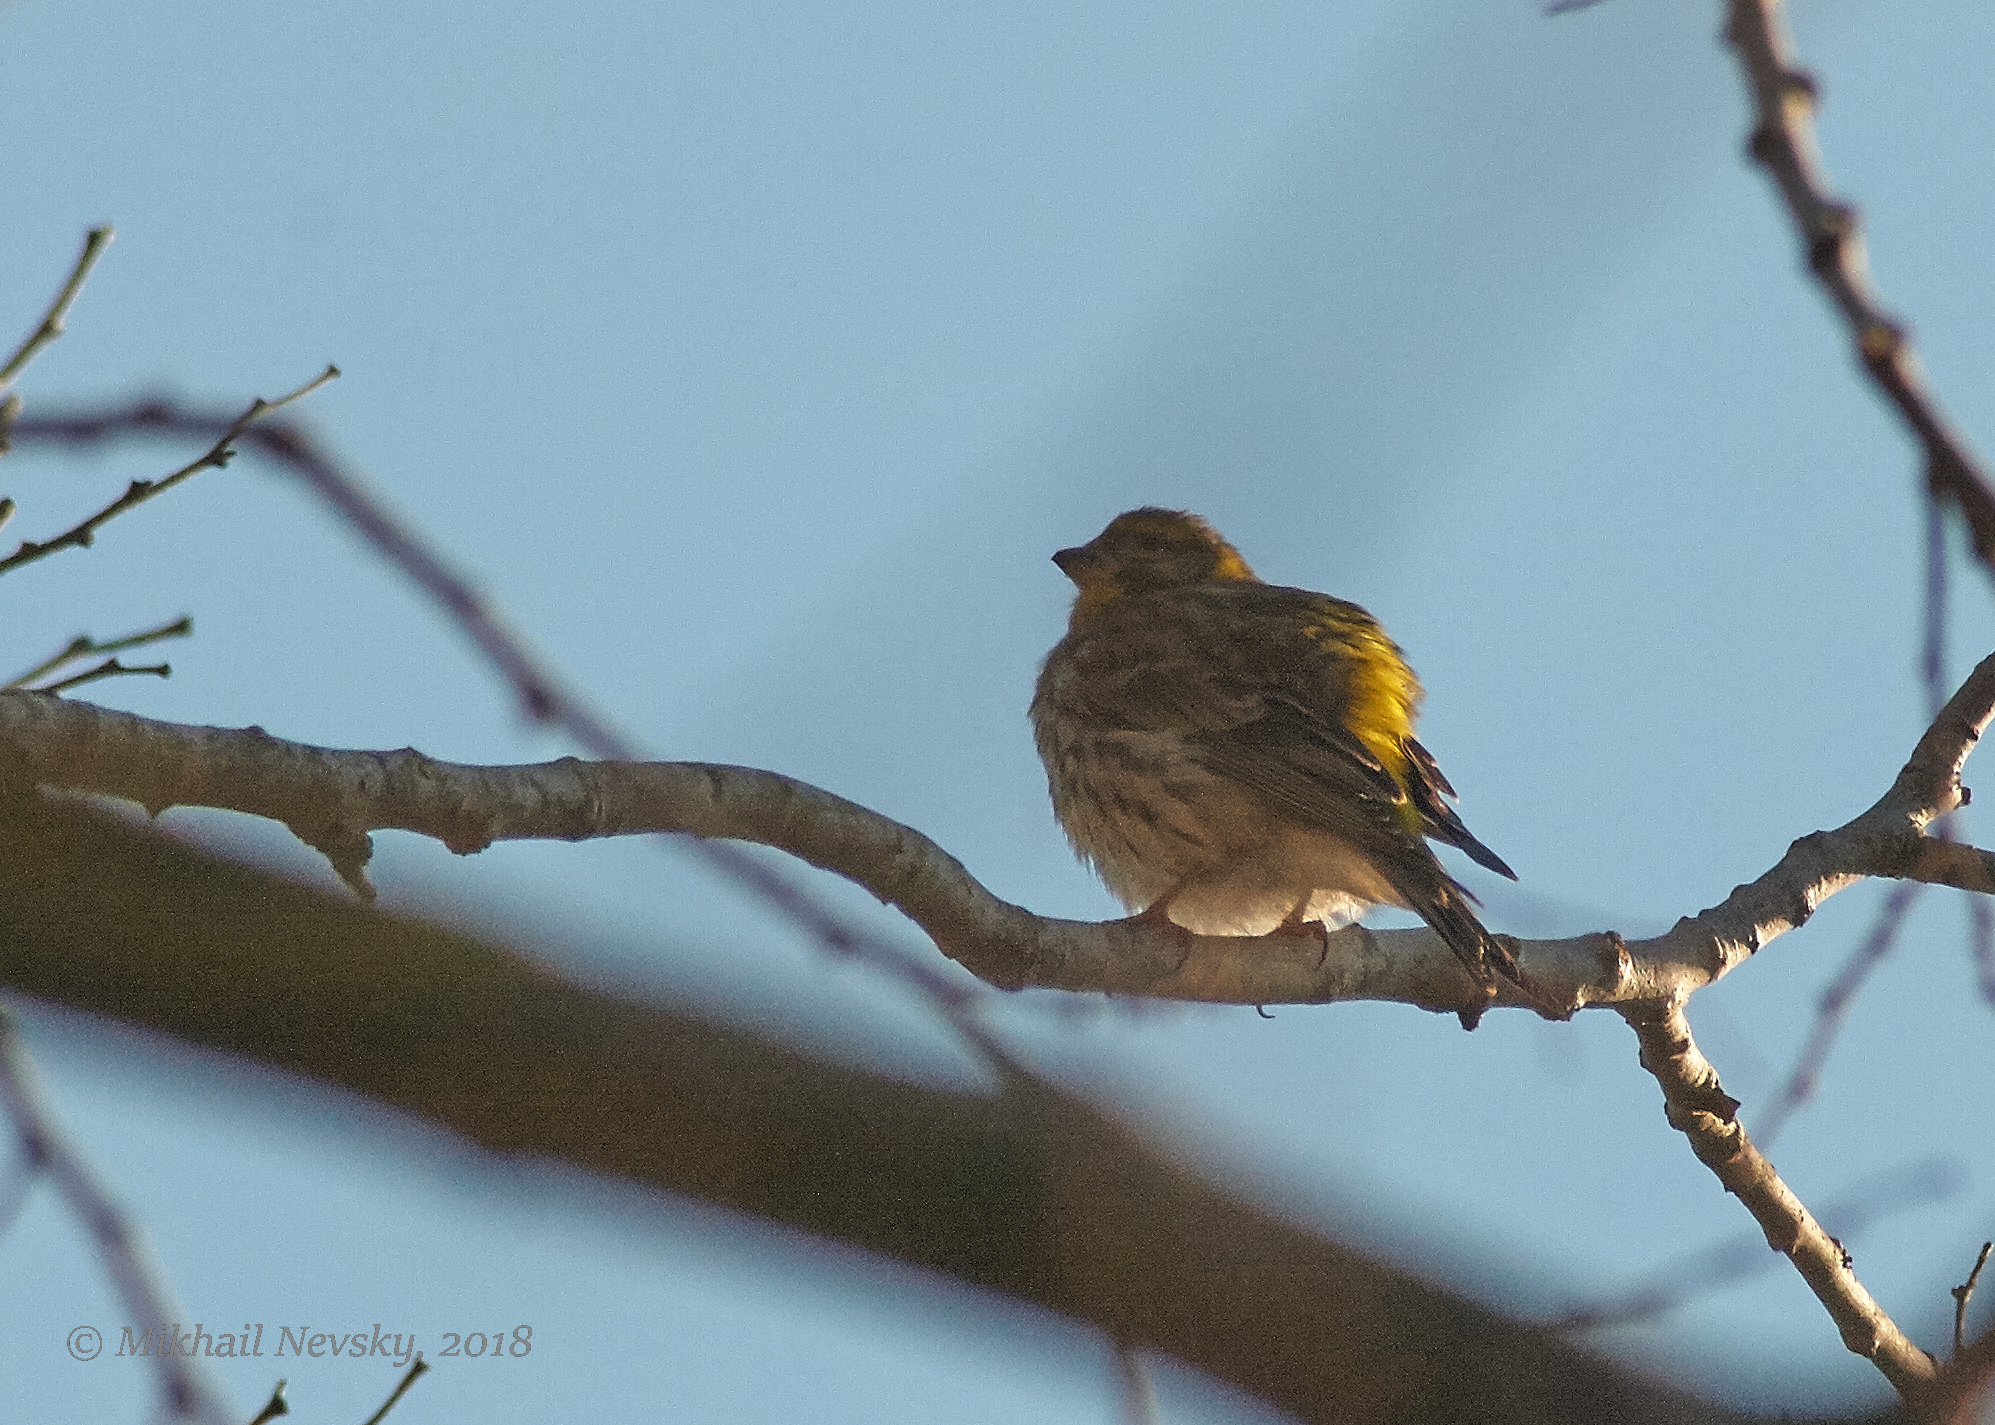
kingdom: Animalia
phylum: Chordata
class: Aves
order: Passeriformes
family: Fringillidae
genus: Serinus
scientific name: Serinus serinus
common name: European serin
